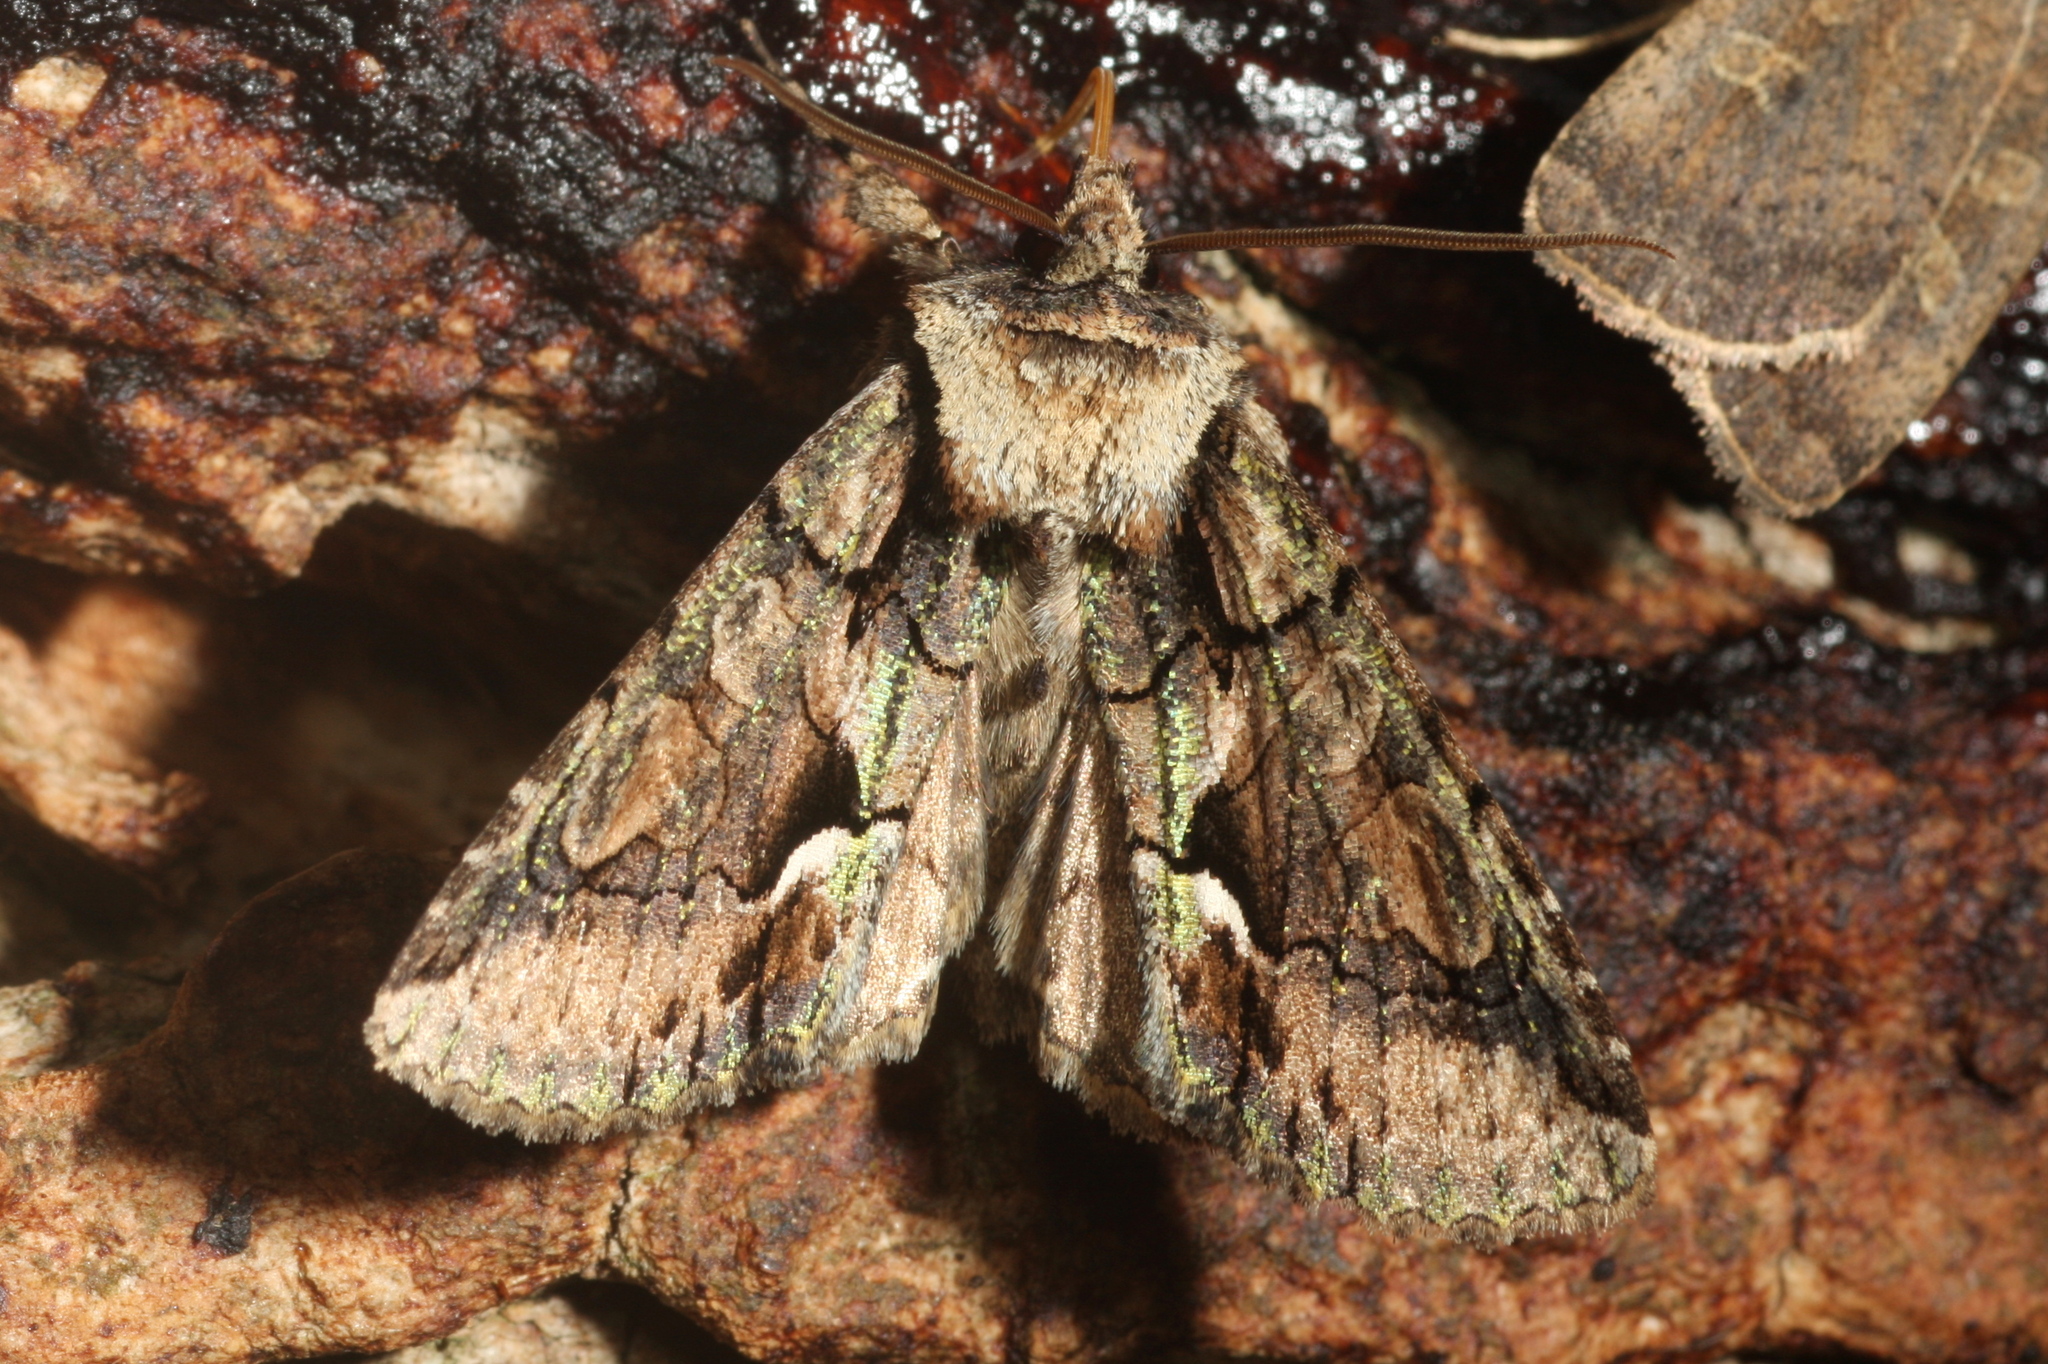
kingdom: Animalia
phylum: Arthropoda
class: Insecta
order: Lepidoptera
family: Noctuidae
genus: Allophyes
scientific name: Allophyes oxyacanthae
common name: Green-brindled crescent
